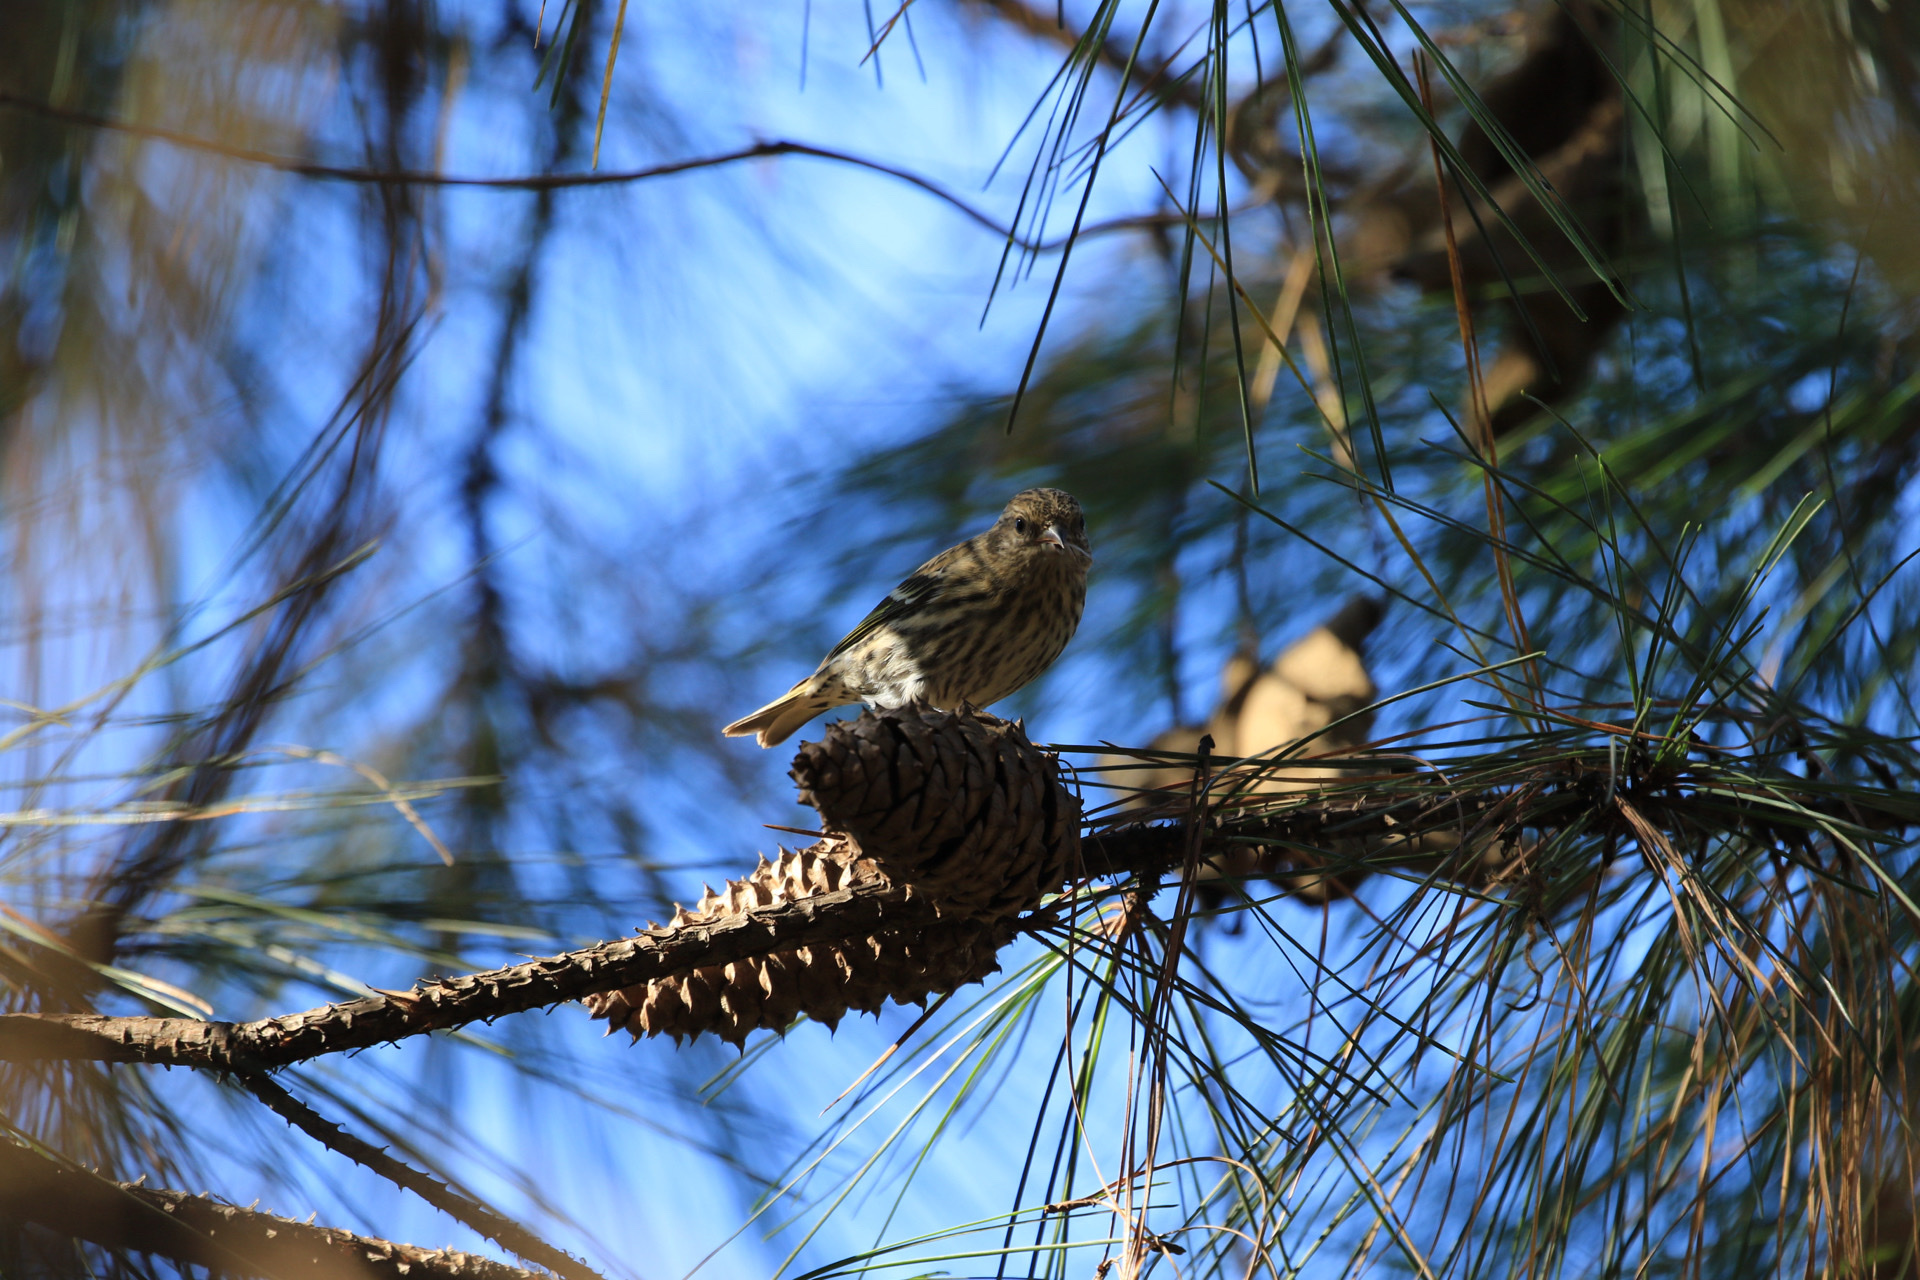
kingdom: Animalia
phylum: Chordata
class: Aves
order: Passeriformes
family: Fringillidae
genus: Spinus
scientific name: Spinus pinus
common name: Pine siskin
